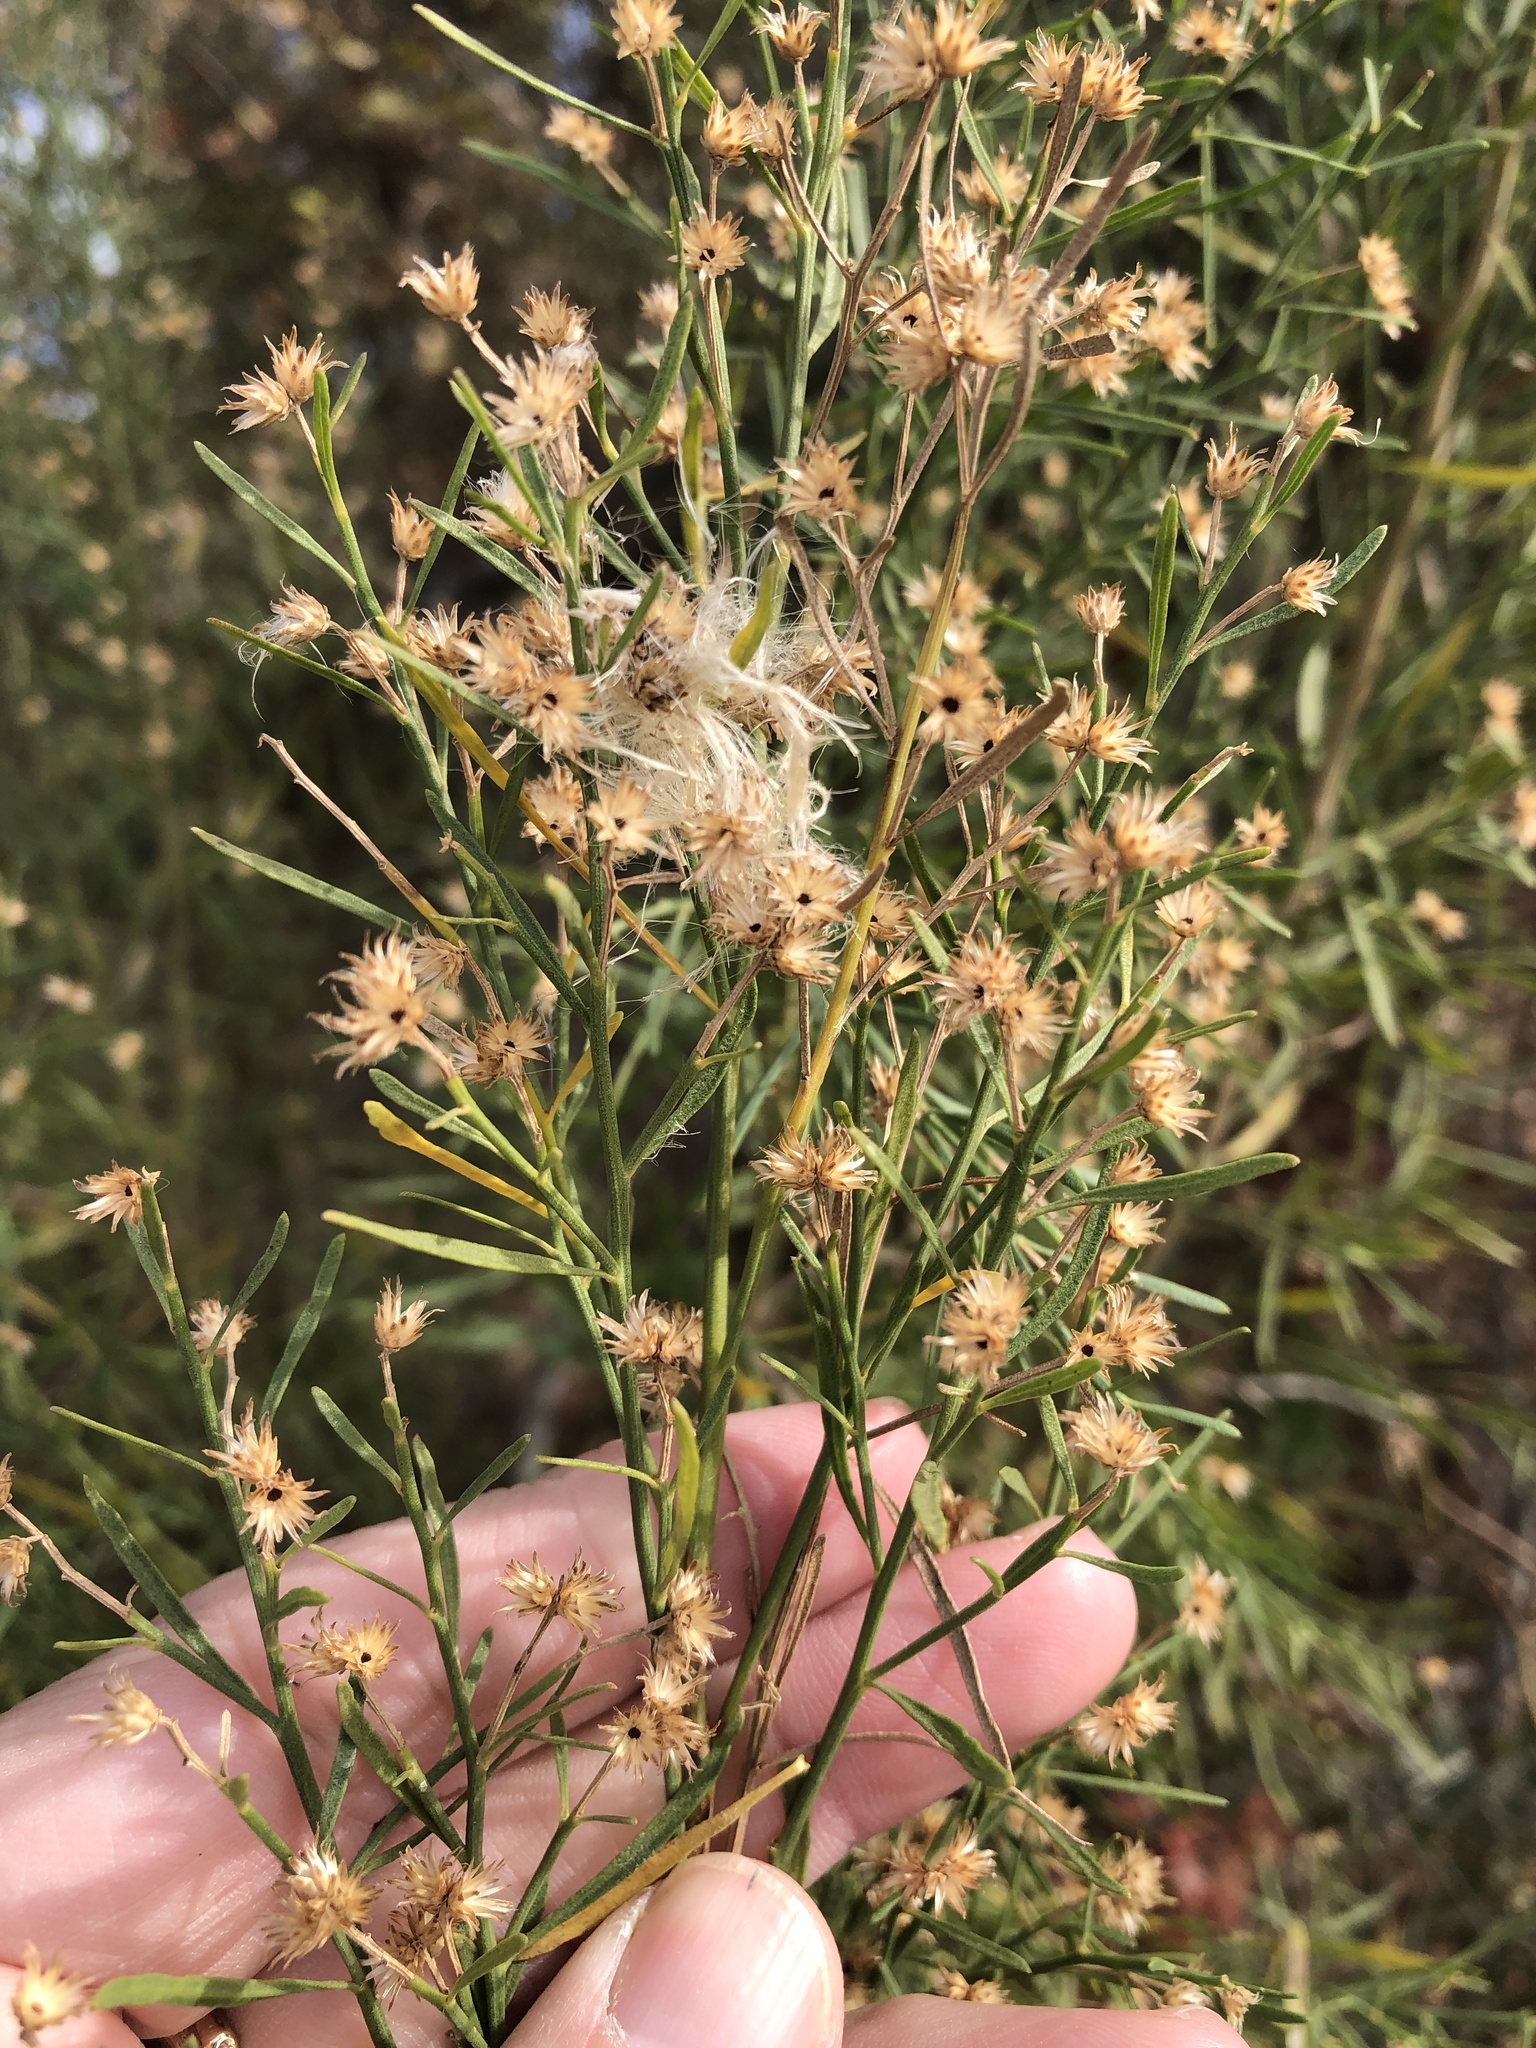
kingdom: Plantae
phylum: Tracheophyta
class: Magnoliopsida
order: Asterales
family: Asteraceae
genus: Baccharis
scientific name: Baccharis neglecta
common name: Roosevelt-weed
